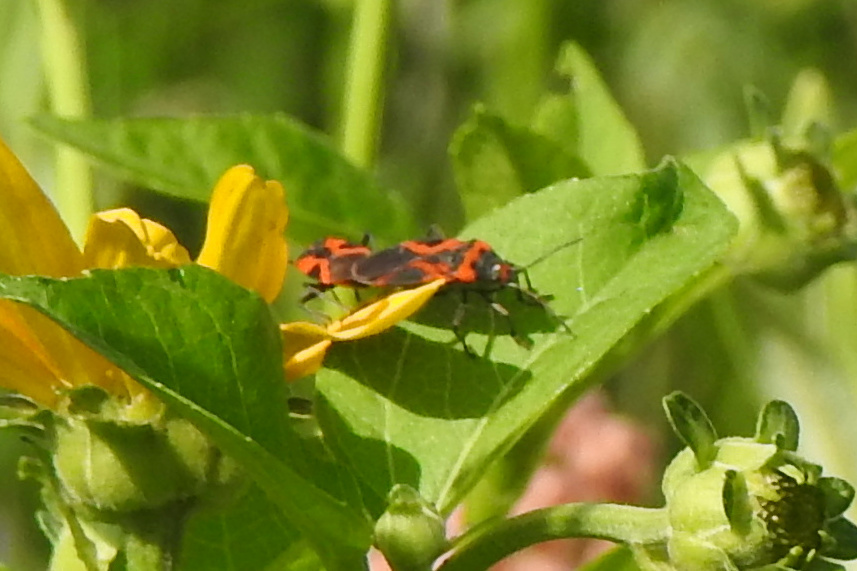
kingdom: Animalia
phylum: Arthropoda
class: Insecta
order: Hemiptera
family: Lygaeidae
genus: Lygaeus
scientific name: Lygaeus turcicus
